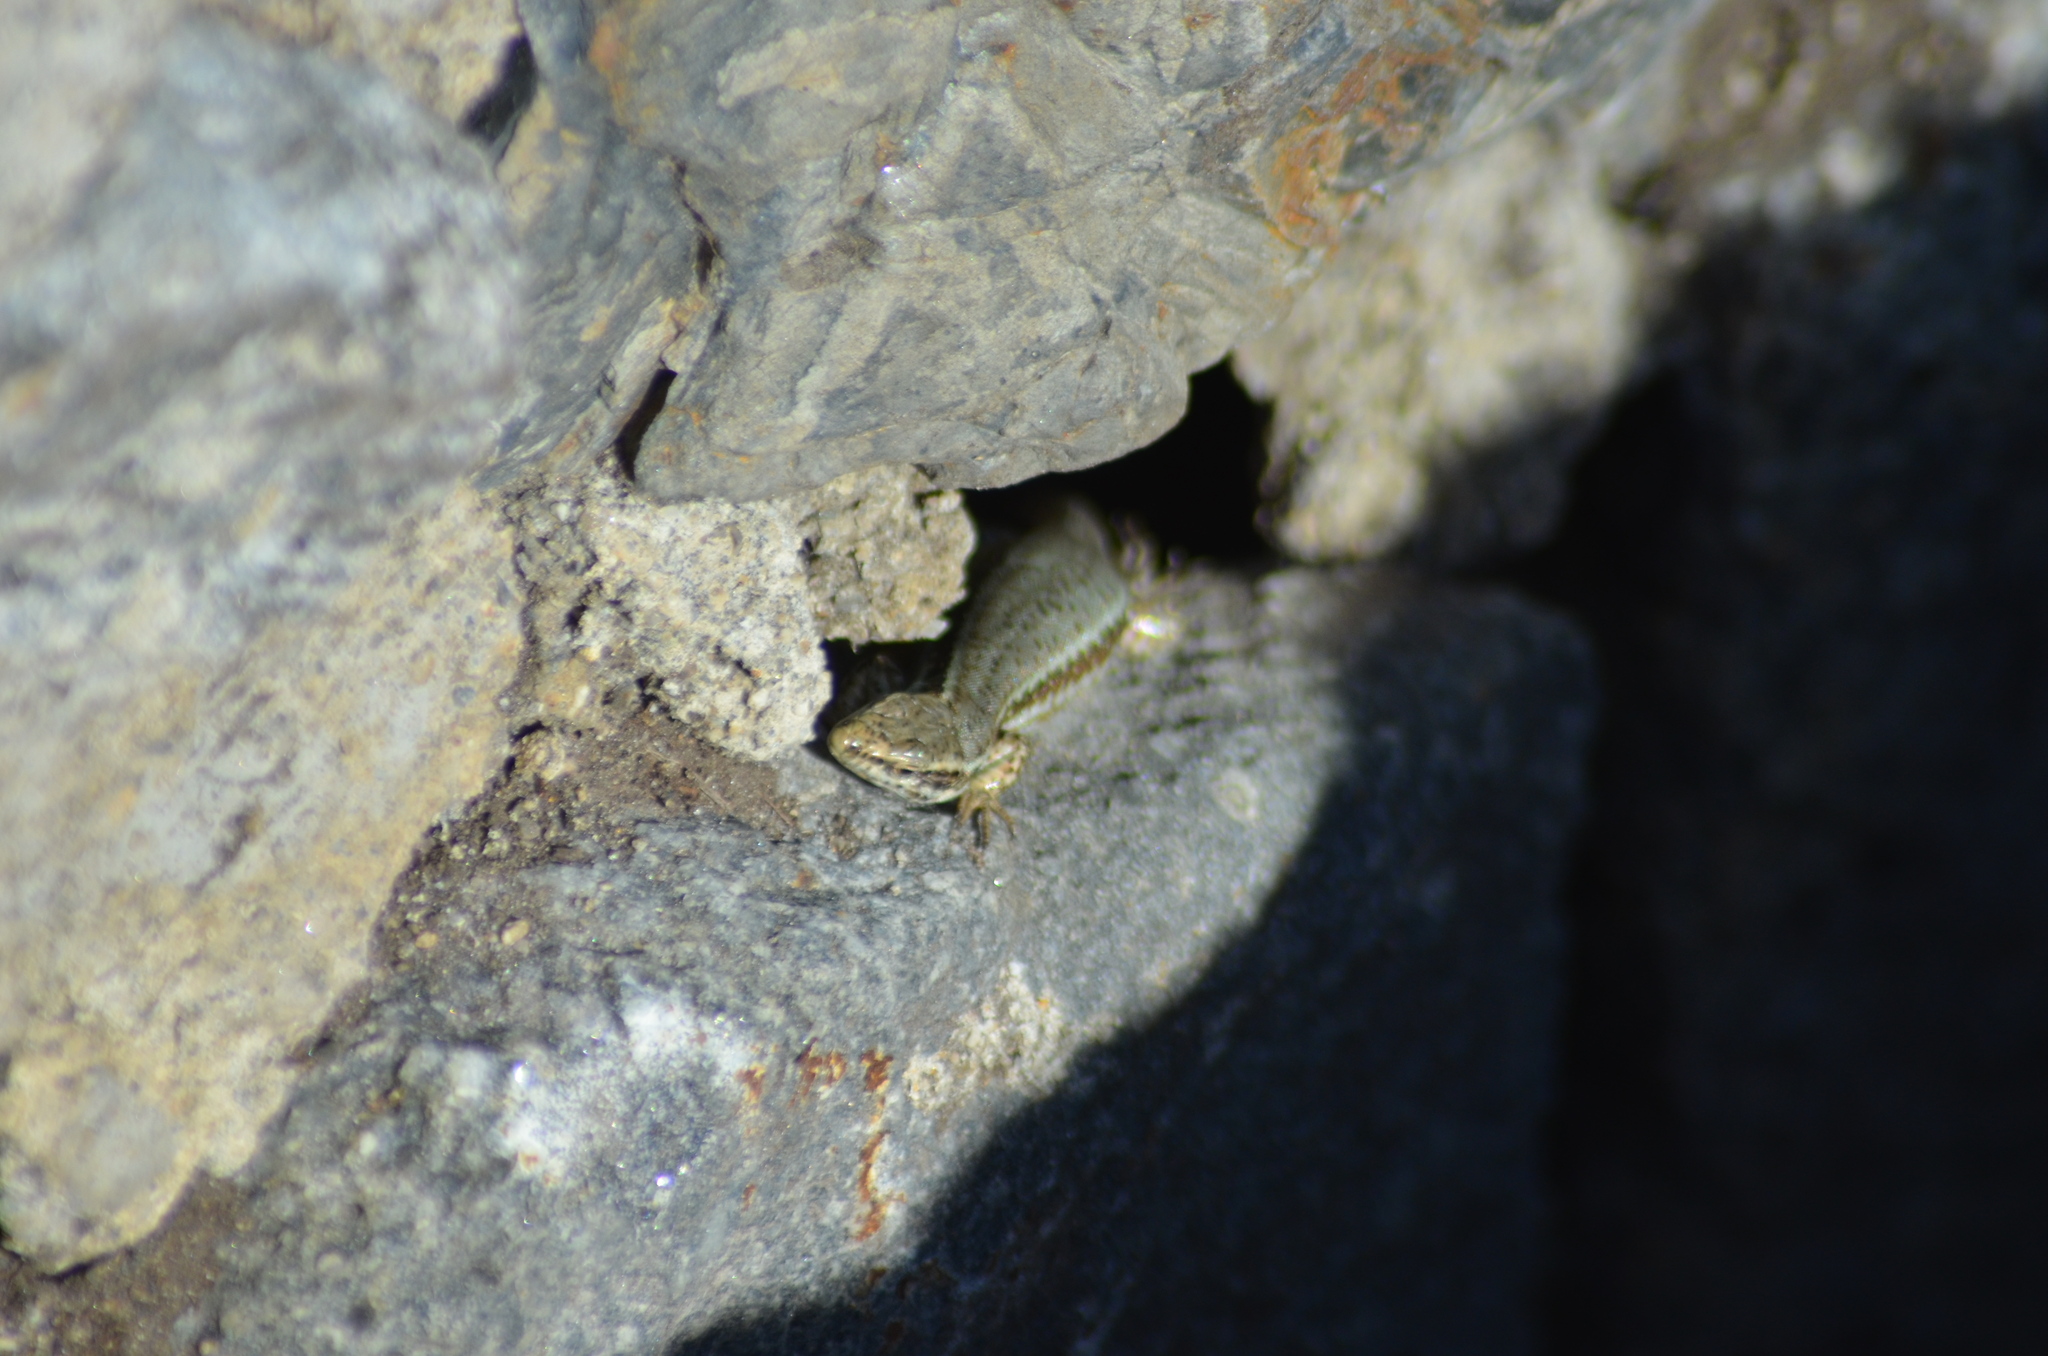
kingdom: Animalia
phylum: Chordata
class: Squamata
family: Lacertidae
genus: Podarcis
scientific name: Podarcis muralis
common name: Common wall lizard
